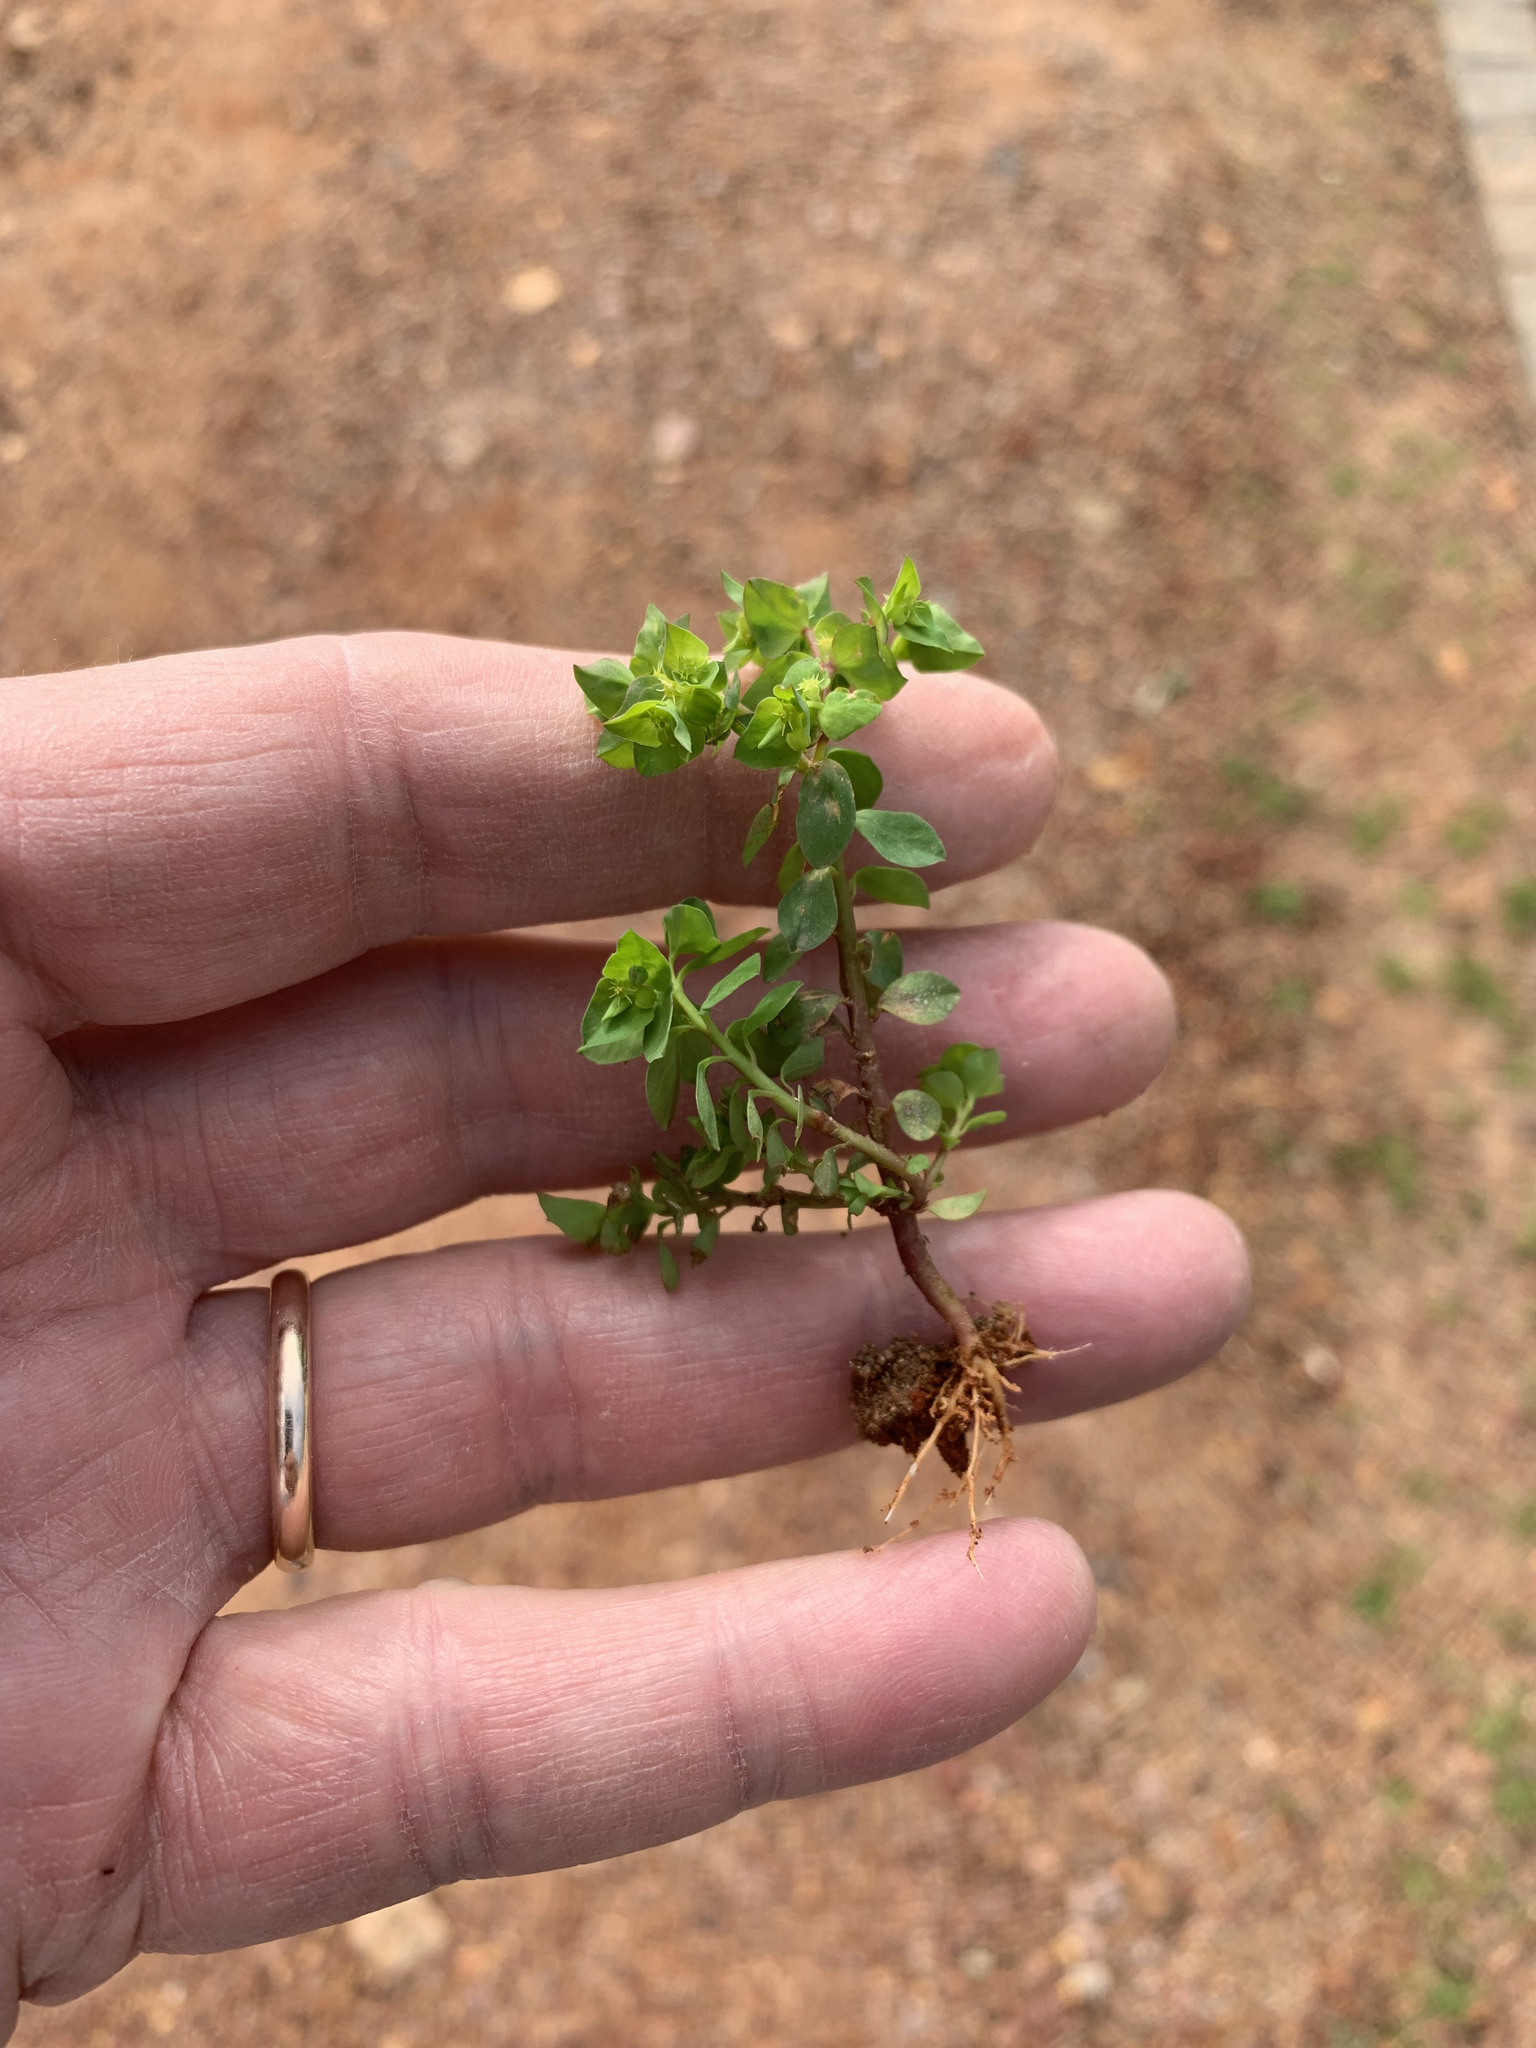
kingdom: Plantae
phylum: Tracheophyta
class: Magnoliopsida
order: Malpighiales
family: Euphorbiaceae
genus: Euphorbia
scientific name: Euphorbia peplus
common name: Petty spurge
